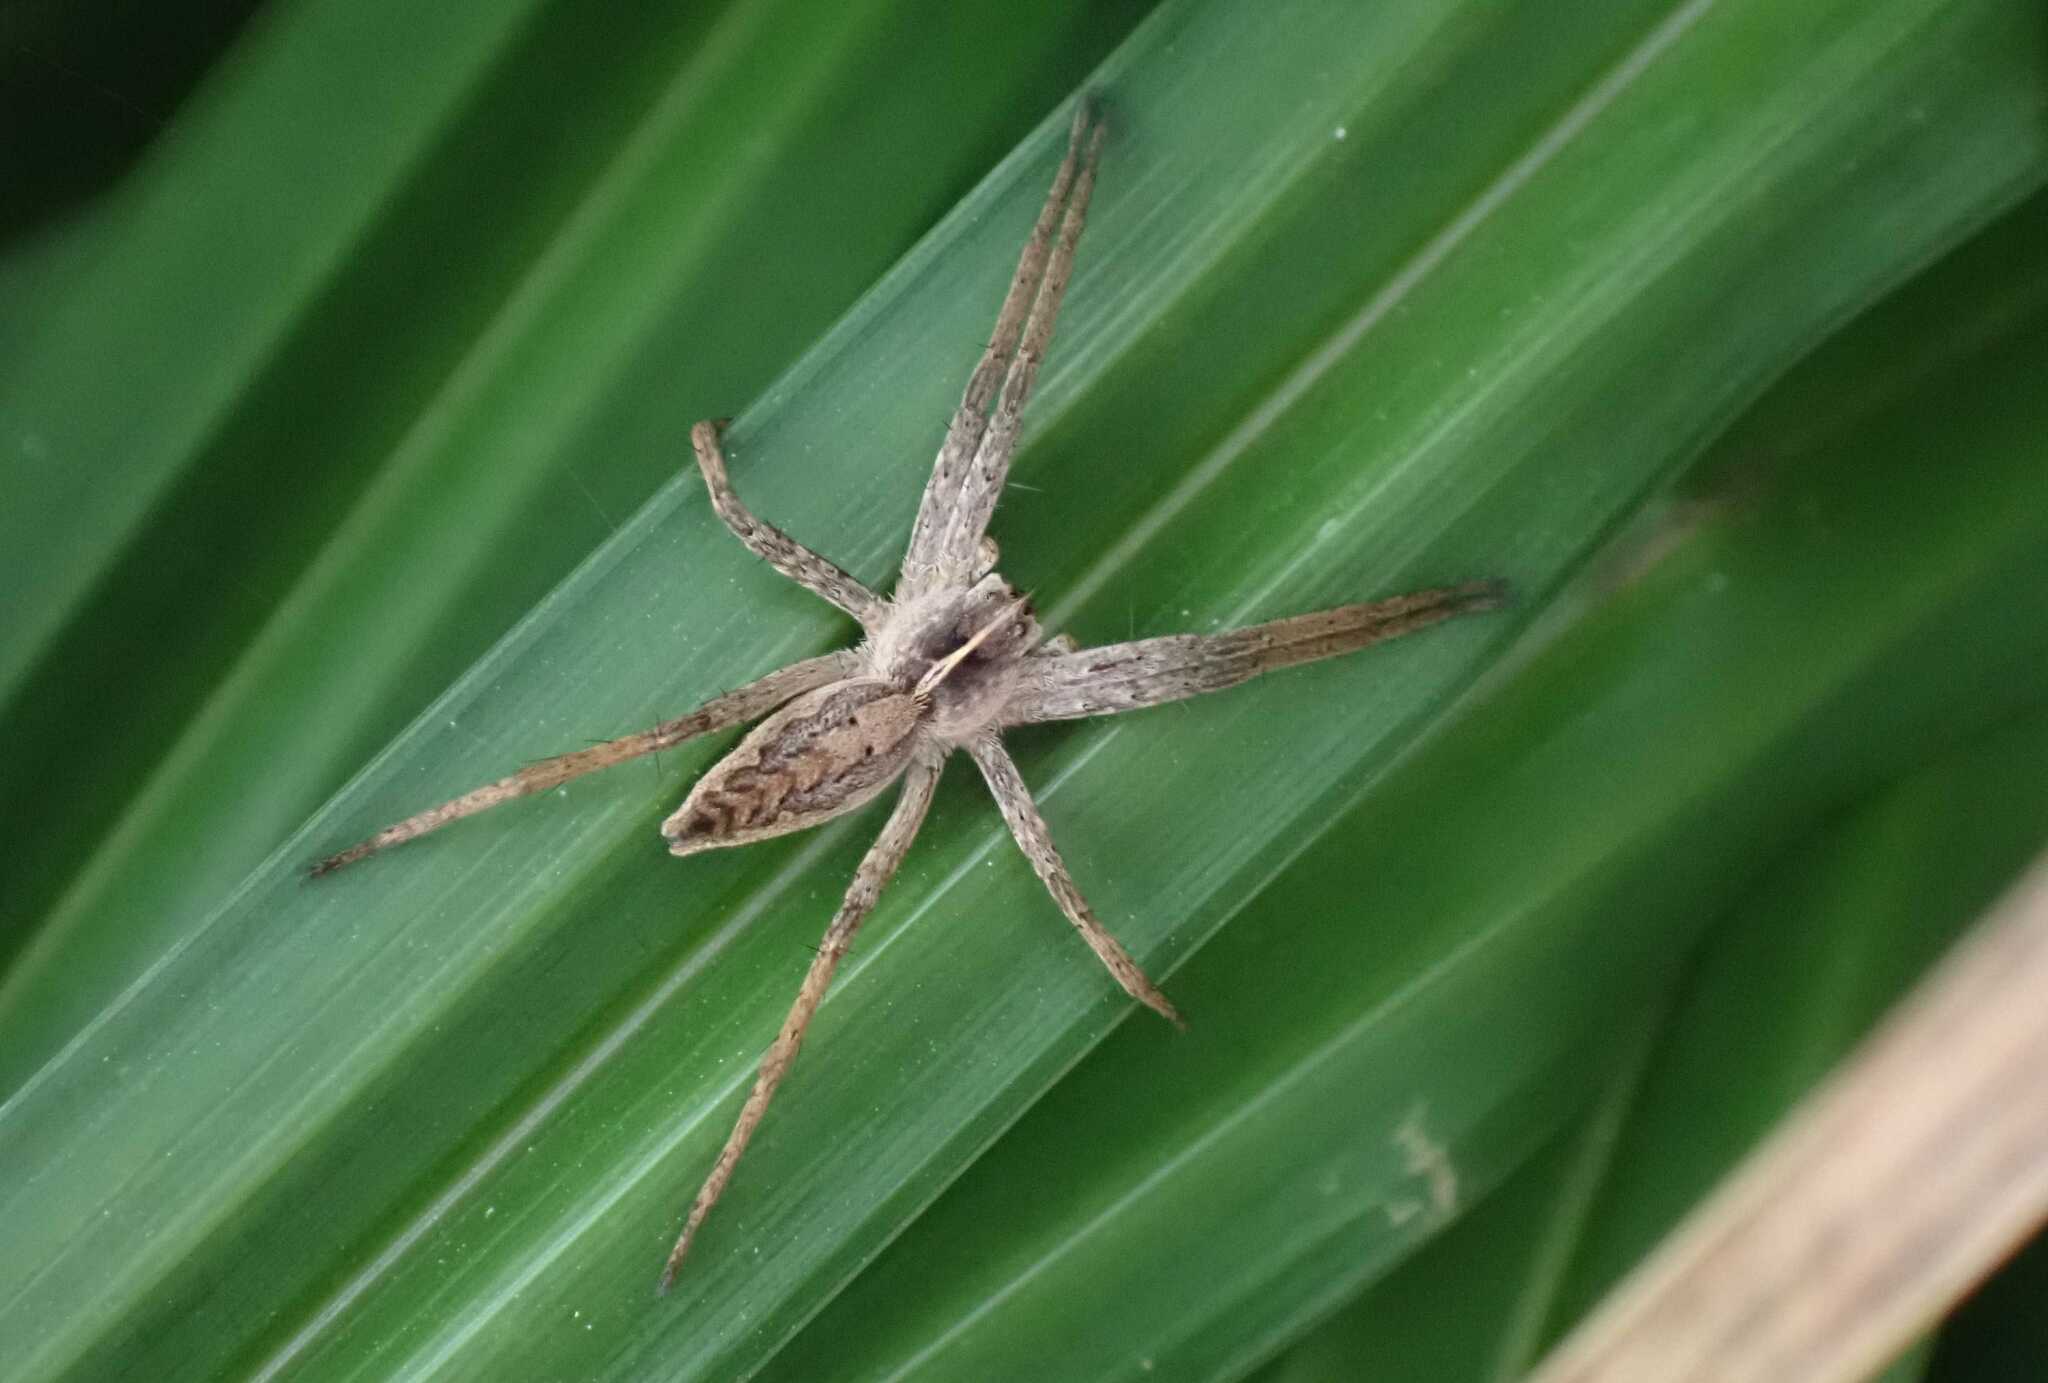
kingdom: Animalia
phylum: Arthropoda
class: Arachnida
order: Araneae
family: Pisauridae
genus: Pisaura
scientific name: Pisaura mirabilis
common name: Tent spider
